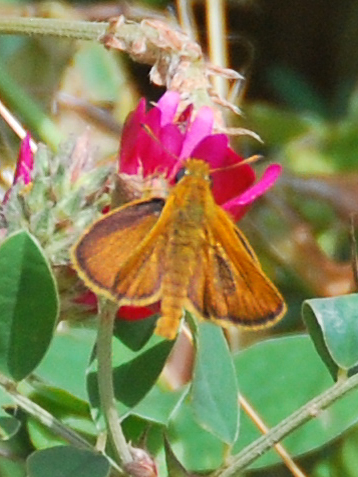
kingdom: Animalia
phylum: Arthropoda
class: Insecta
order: Lepidoptera
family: Hesperiidae
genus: Thymelicus
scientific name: Thymelicus acteon
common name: Lulworth skipper
